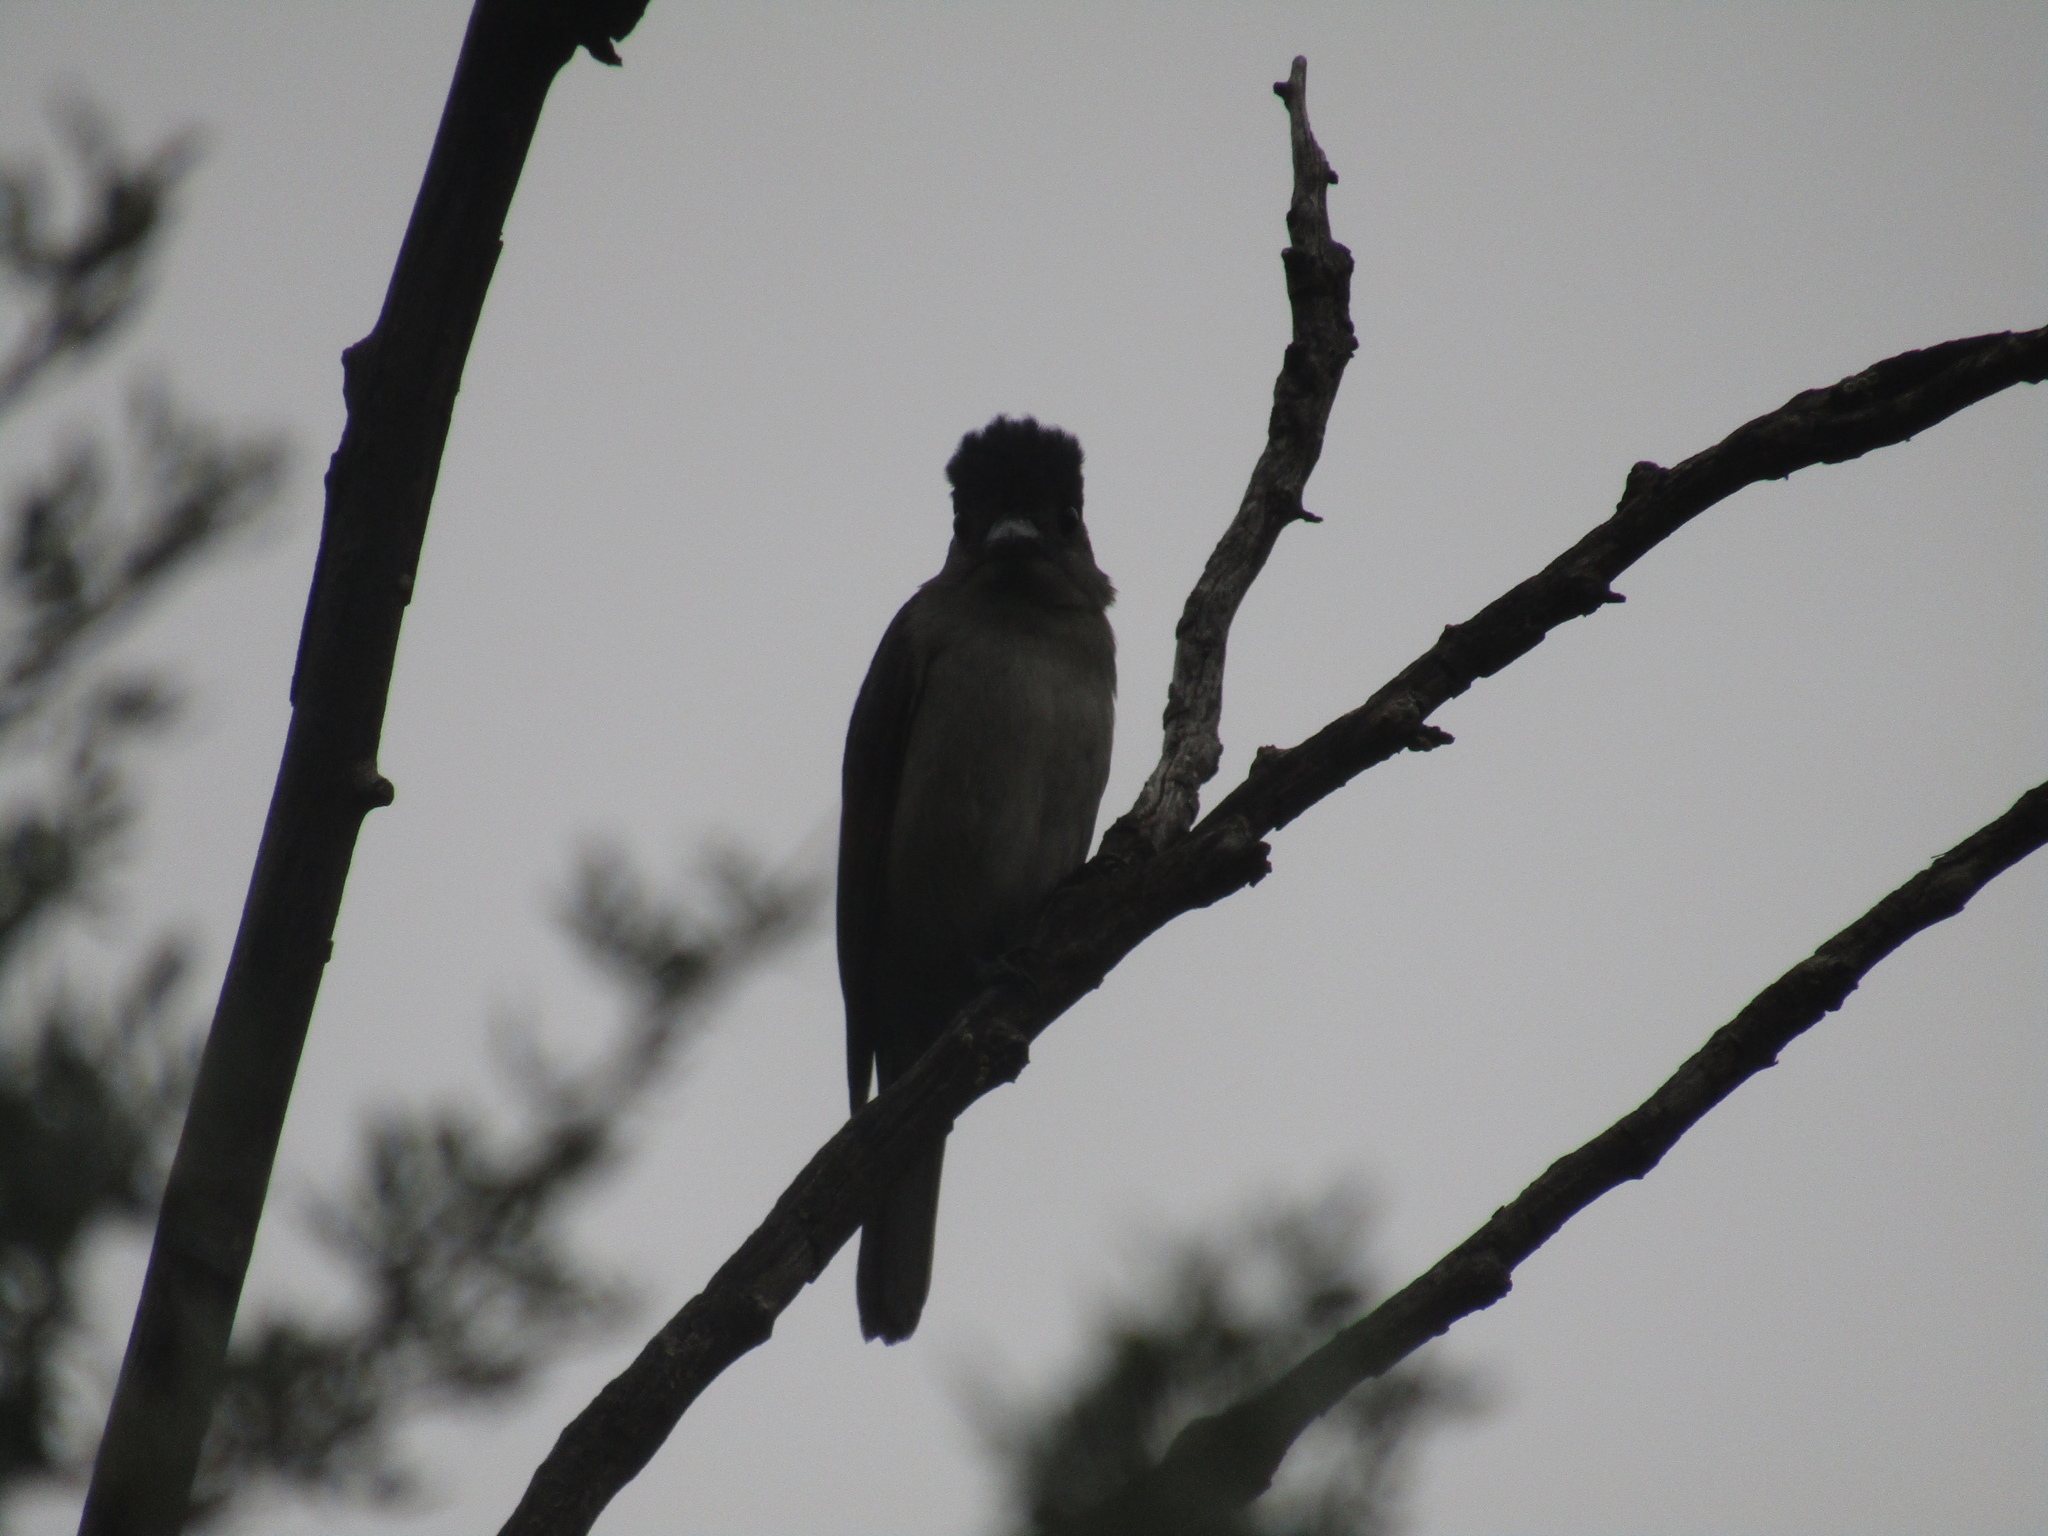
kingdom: Animalia
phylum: Chordata
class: Aves
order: Passeriformes
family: Cotingidae
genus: Pachyramphus
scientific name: Pachyramphus validus
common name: Crested becard
